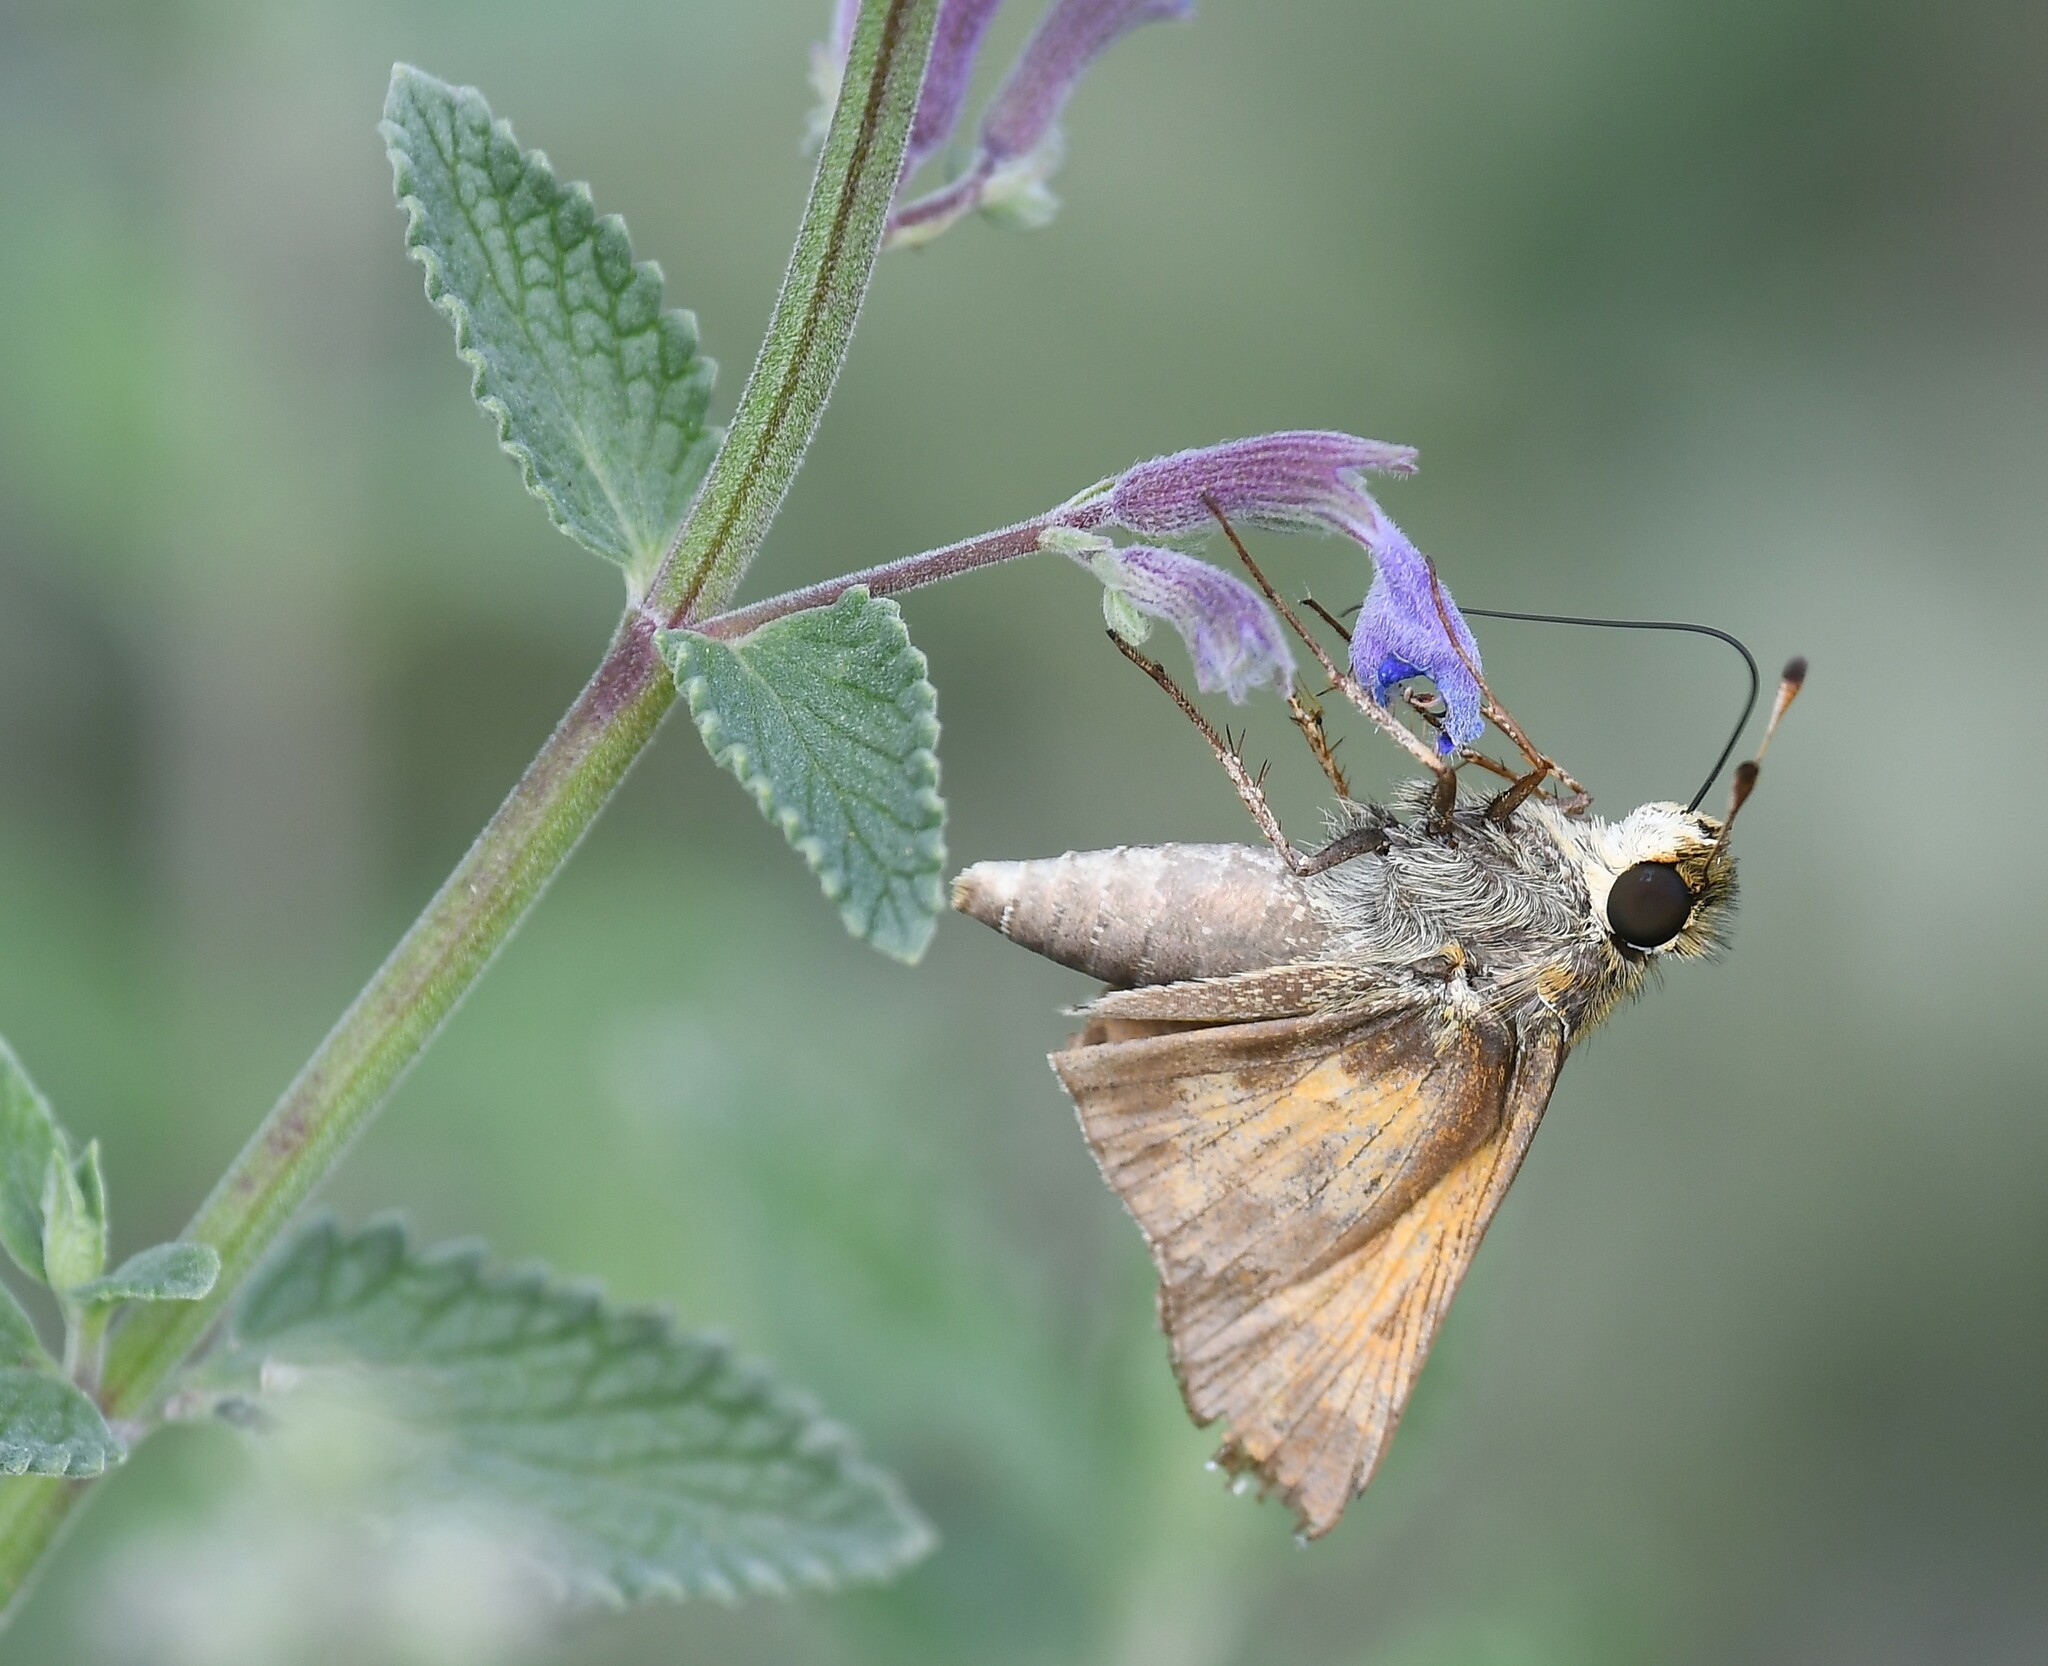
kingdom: Animalia
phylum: Arthropoda
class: Insecta
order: Lepidoptera
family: Hesperiidae
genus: Atalopedes
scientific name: Atalopedes
